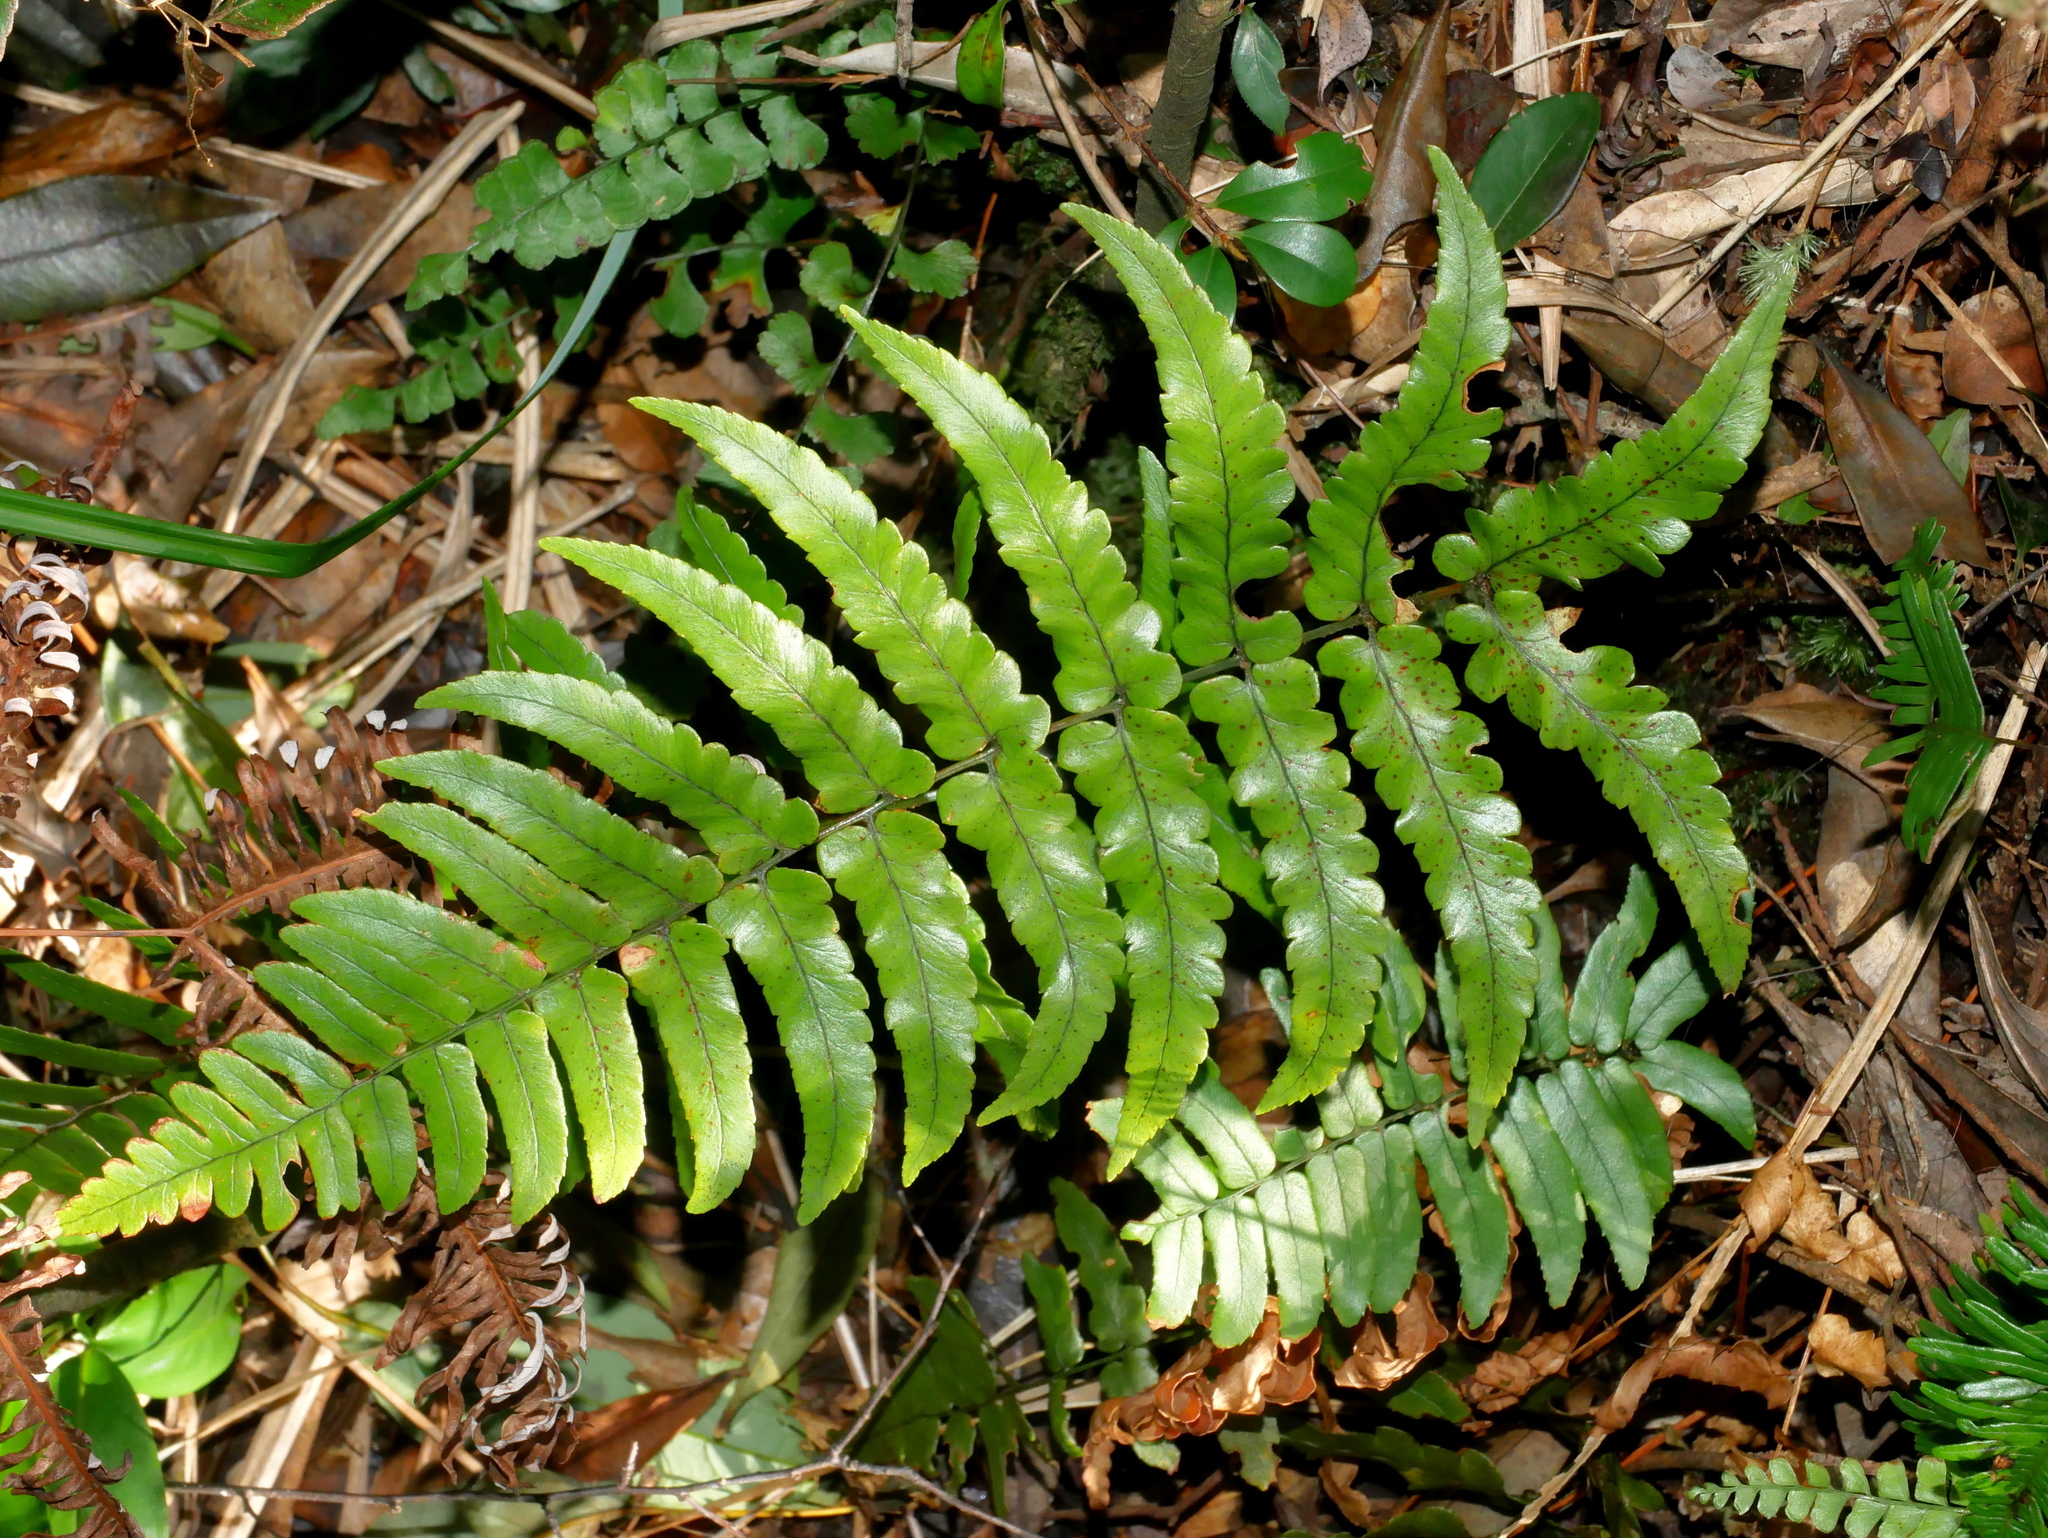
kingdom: Plantae
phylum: Tracheophyta
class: Polypodiopsida
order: Polypodiales
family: Dryopteridaceae
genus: Dryopteris
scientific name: Dryopteris decipiens
